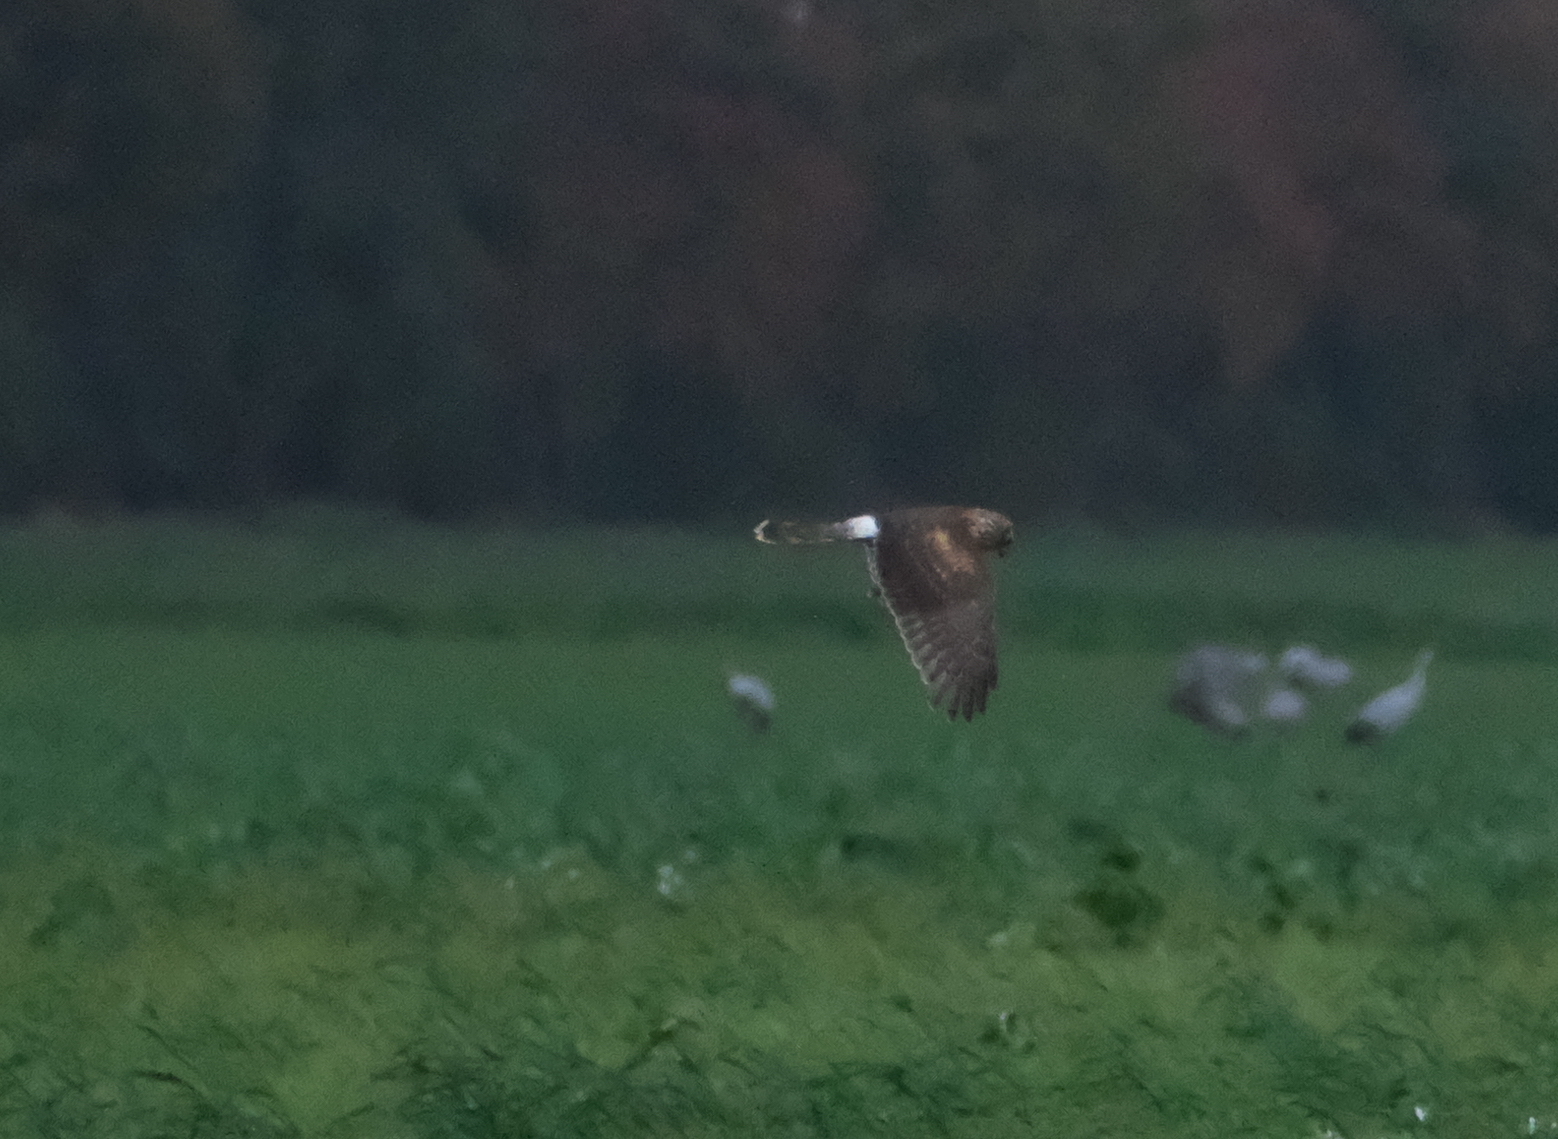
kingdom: Animalia
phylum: Chordata
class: Aves
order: Accipitriformes
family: Accipitridae
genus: Circus
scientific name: Circus cyaneus
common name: Hen harrier
